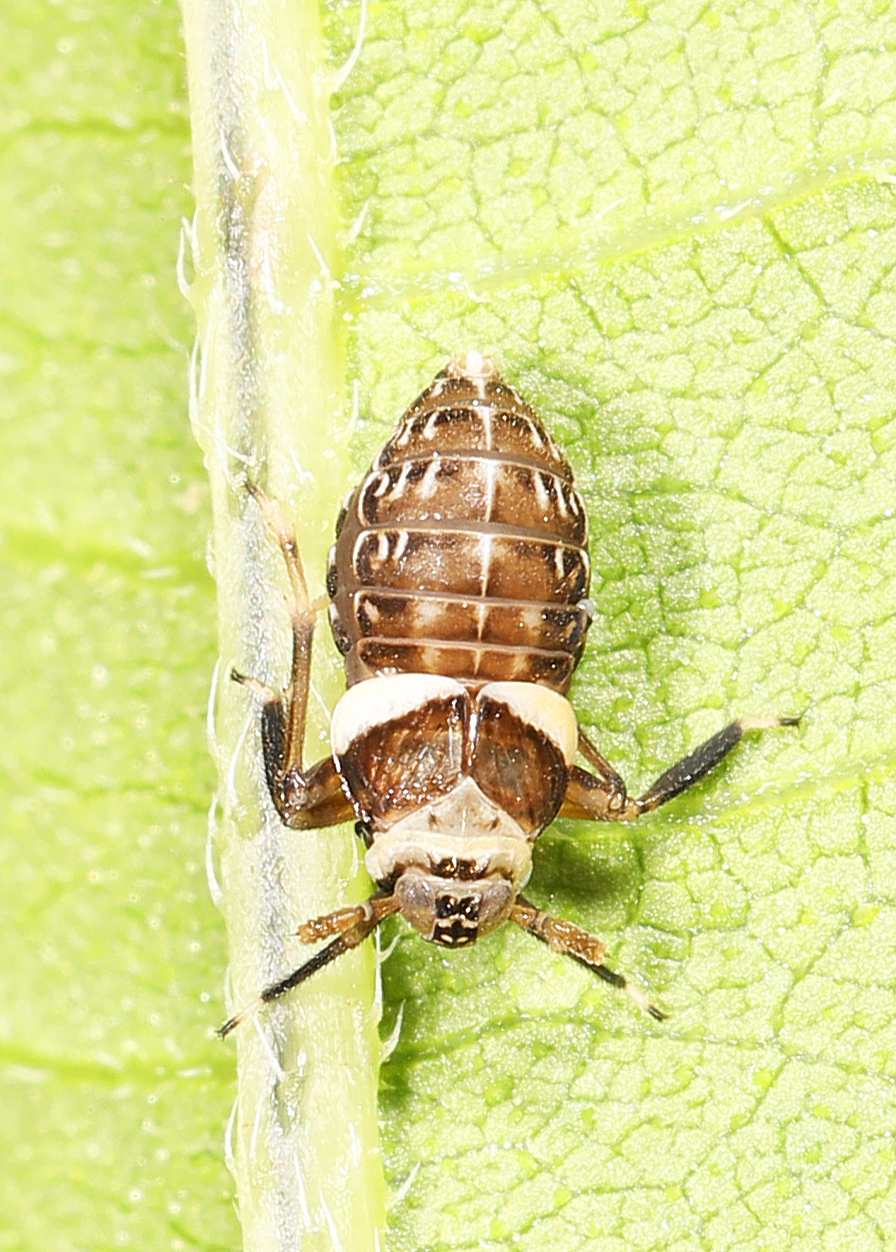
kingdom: Animalia
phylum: Arthropoda
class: Insecta
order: Hemiptera
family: Delphacidae
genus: Pissonotus
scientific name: Pissonotus flabellatus
